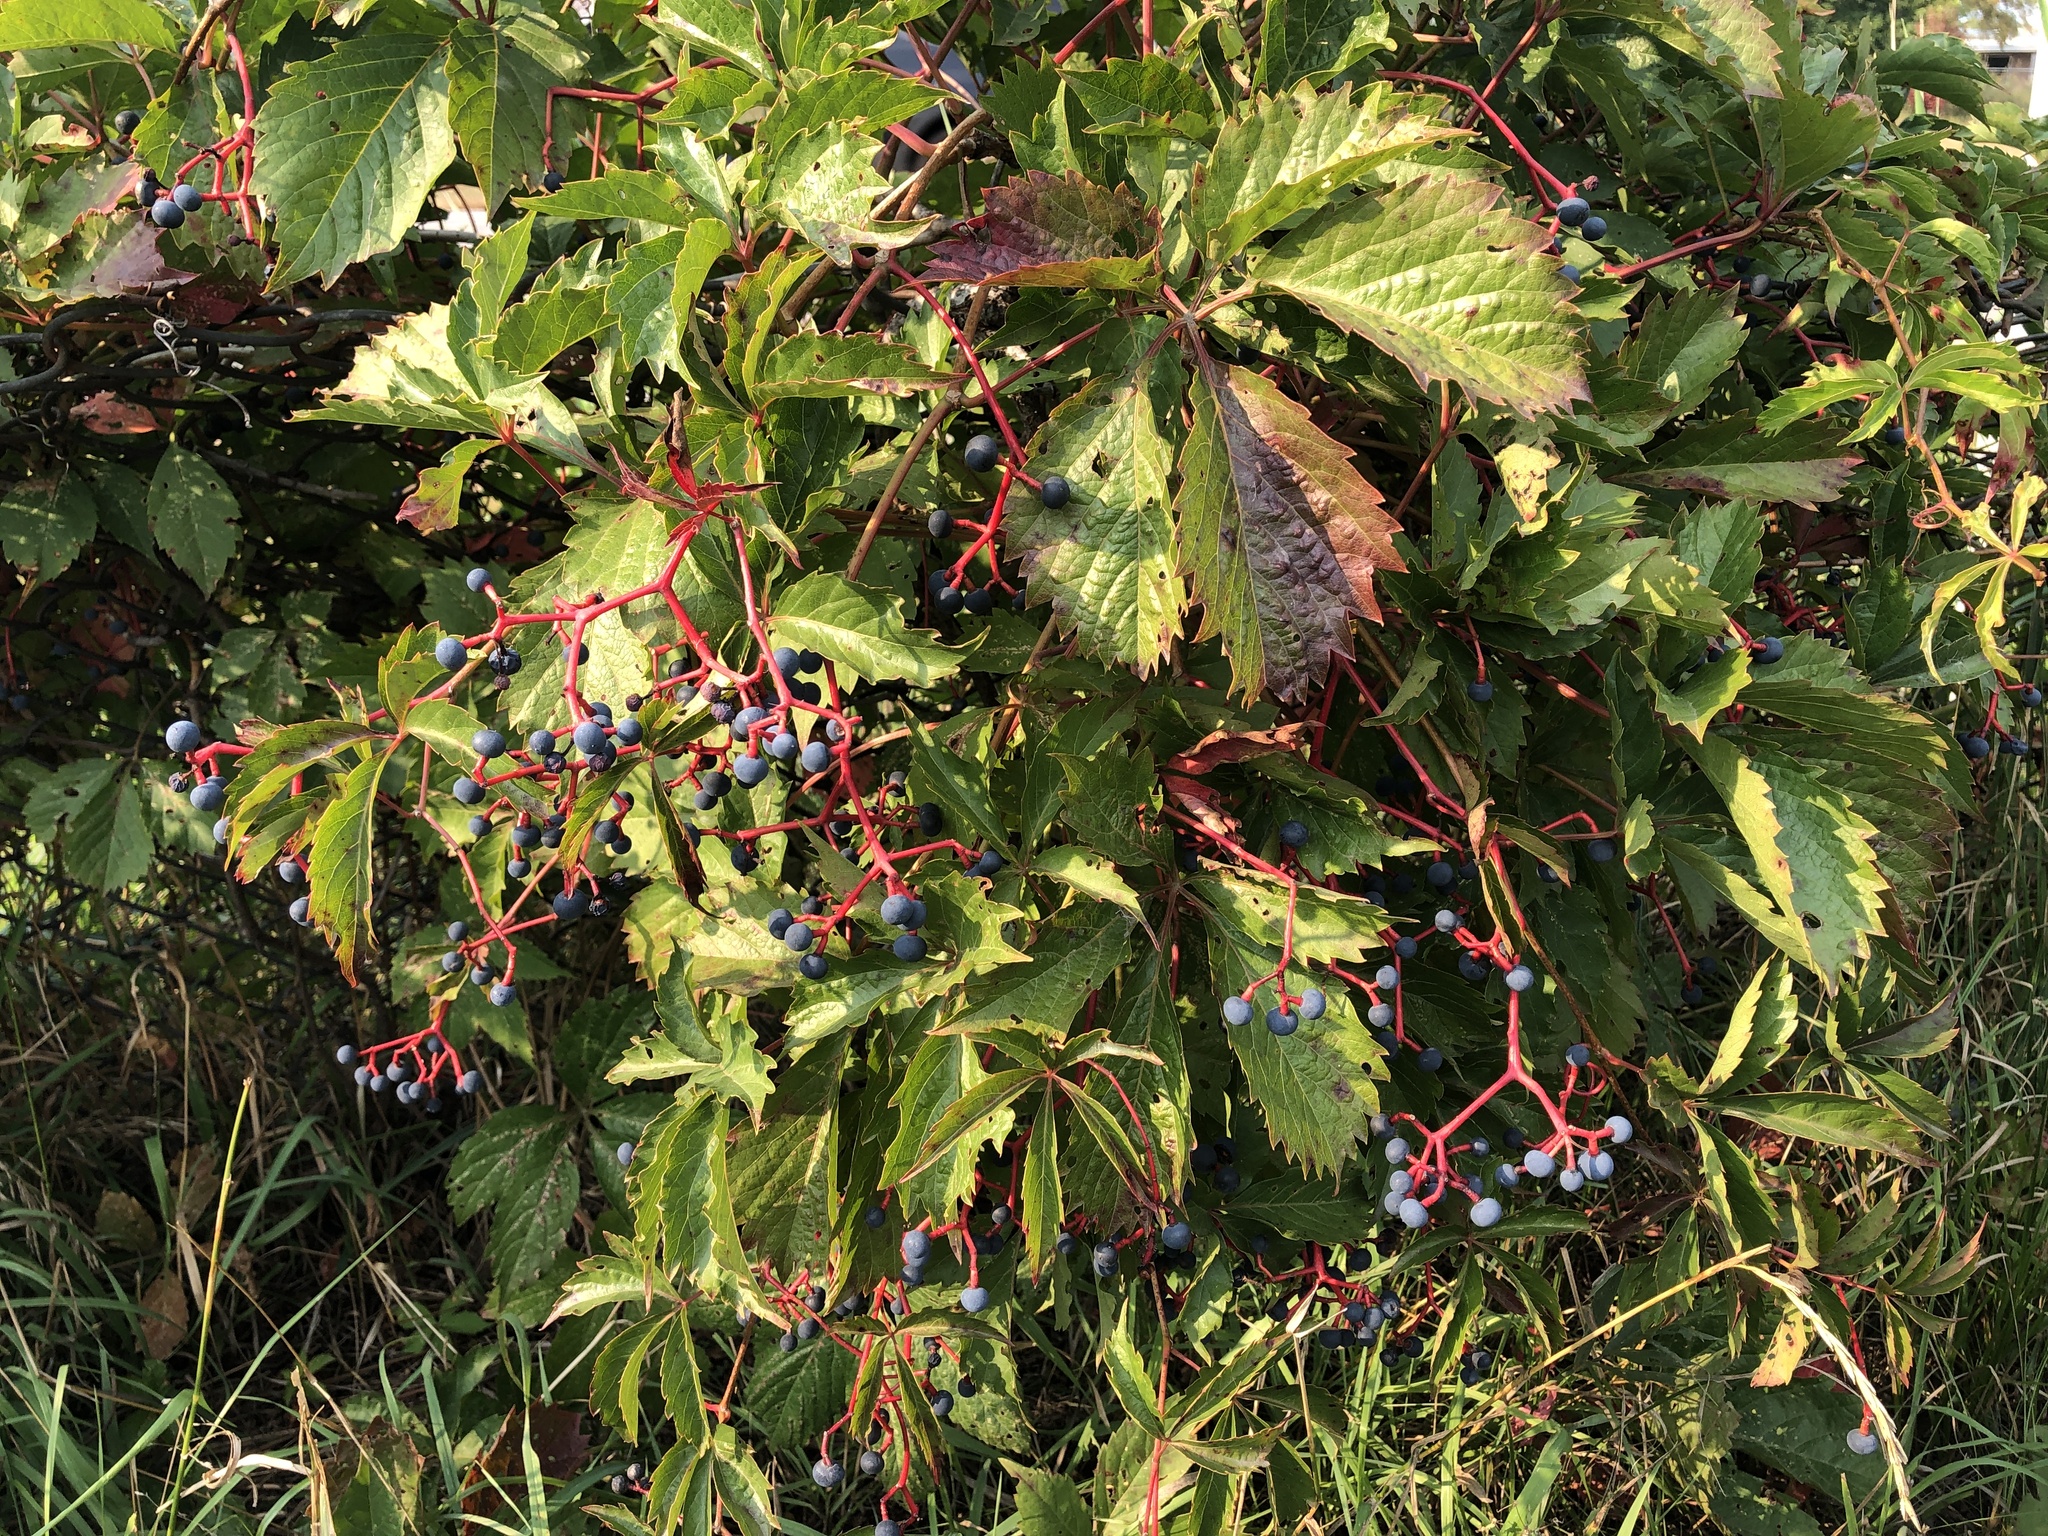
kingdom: Plantae
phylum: Tracheophyta
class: Magnoliopsida
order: Vitales
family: Vitaceae
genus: Parthenocissus
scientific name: Parthenocissus inserta
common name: False virginia-creeper
